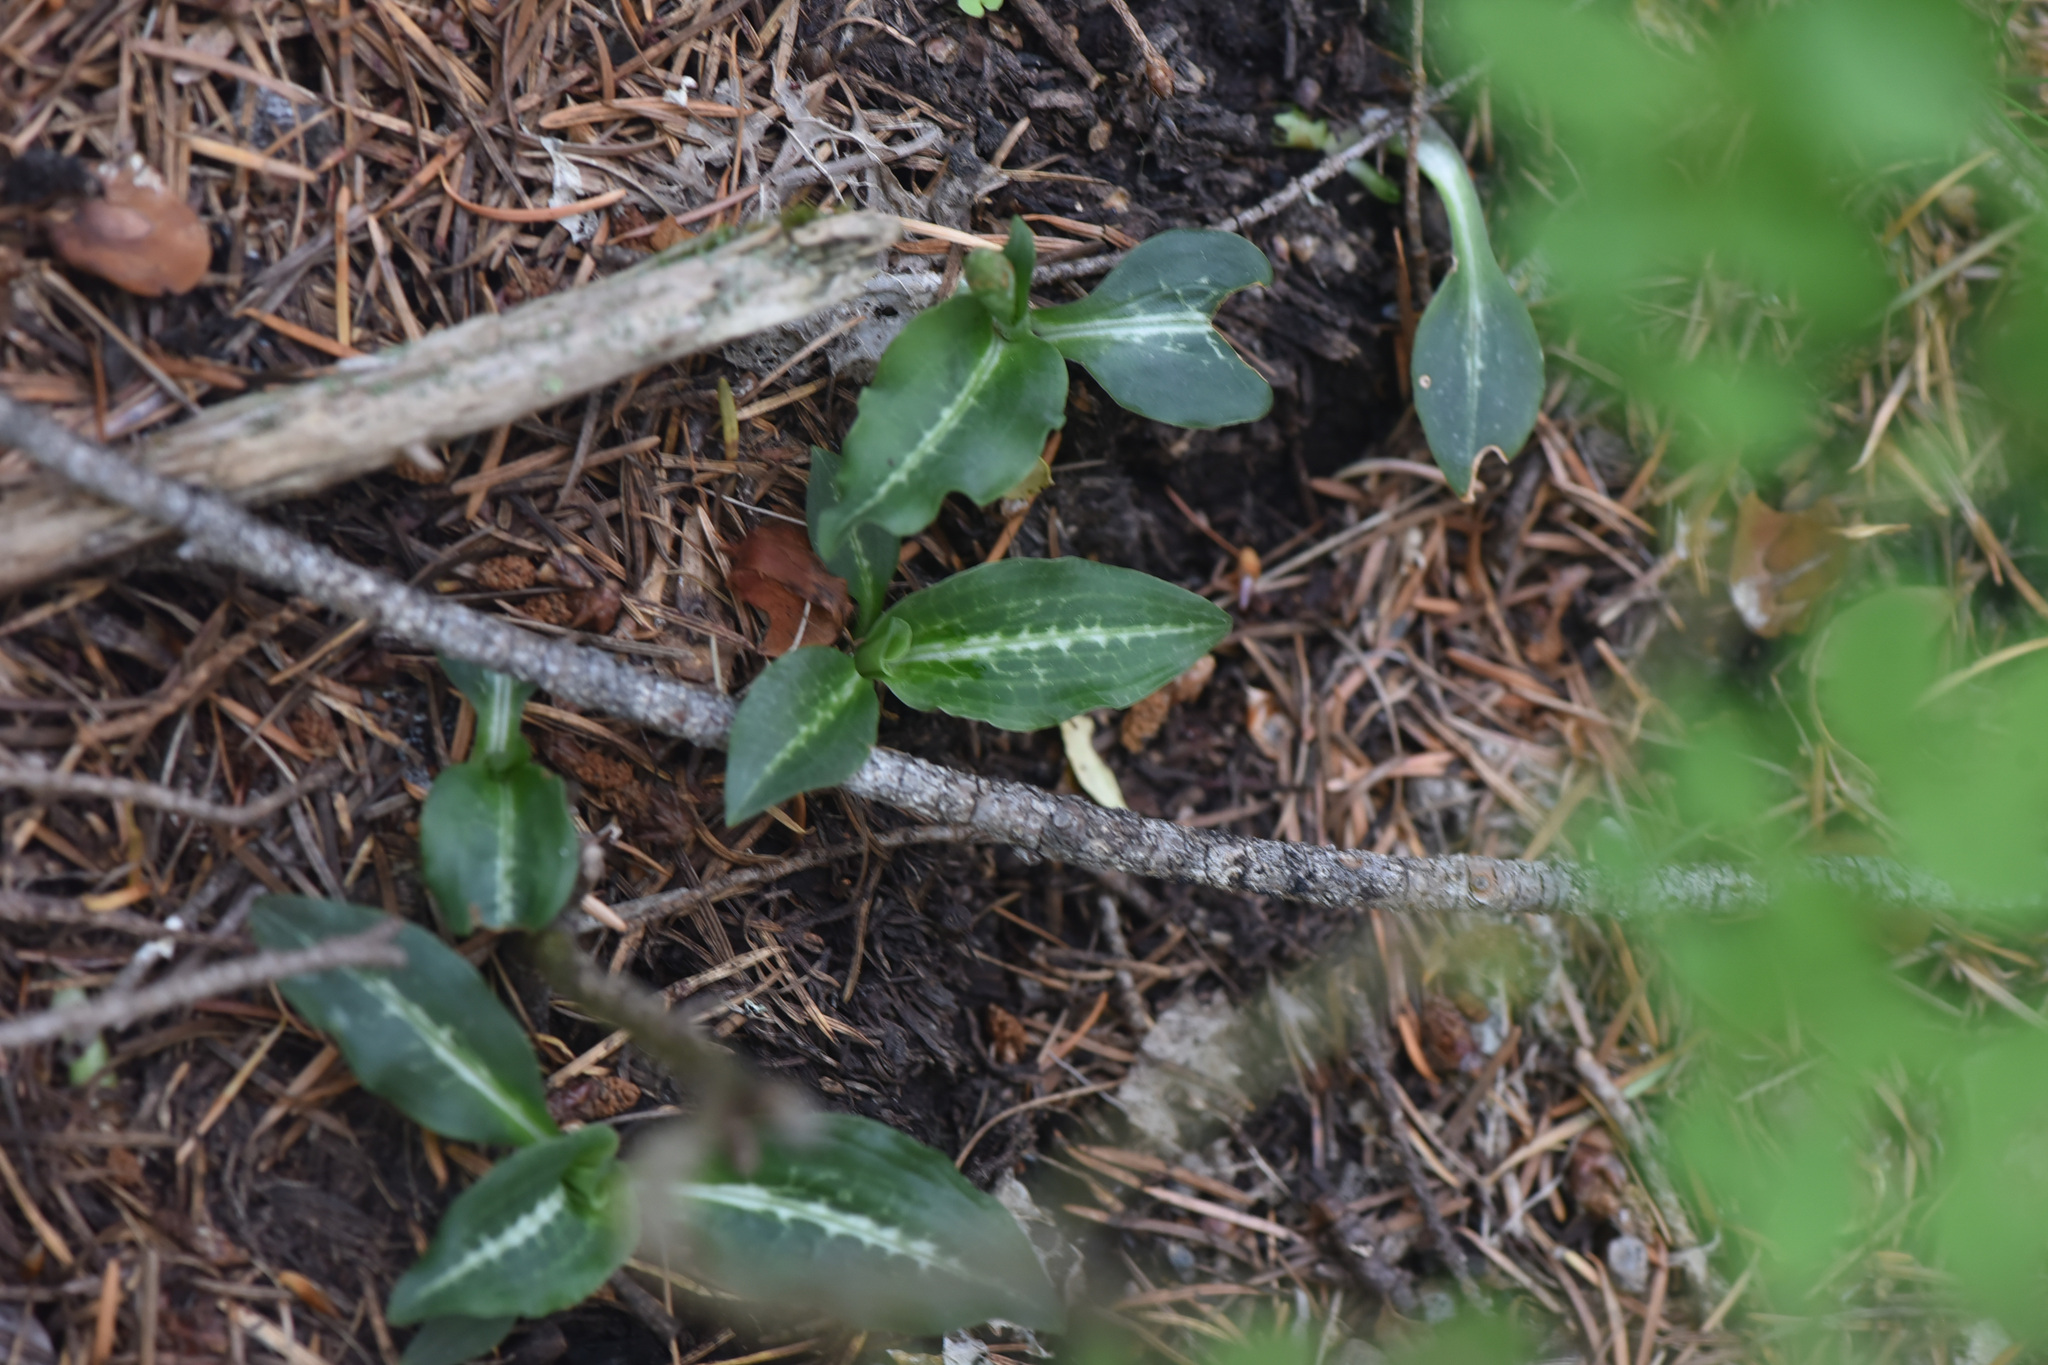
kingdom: Plantae
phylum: Tracheophyta
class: Liliopsida
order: Asparagales
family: Orchidaceae
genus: Goodyera
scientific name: Goodyera oblongifolia
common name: Giant rattlesnake-plantain
